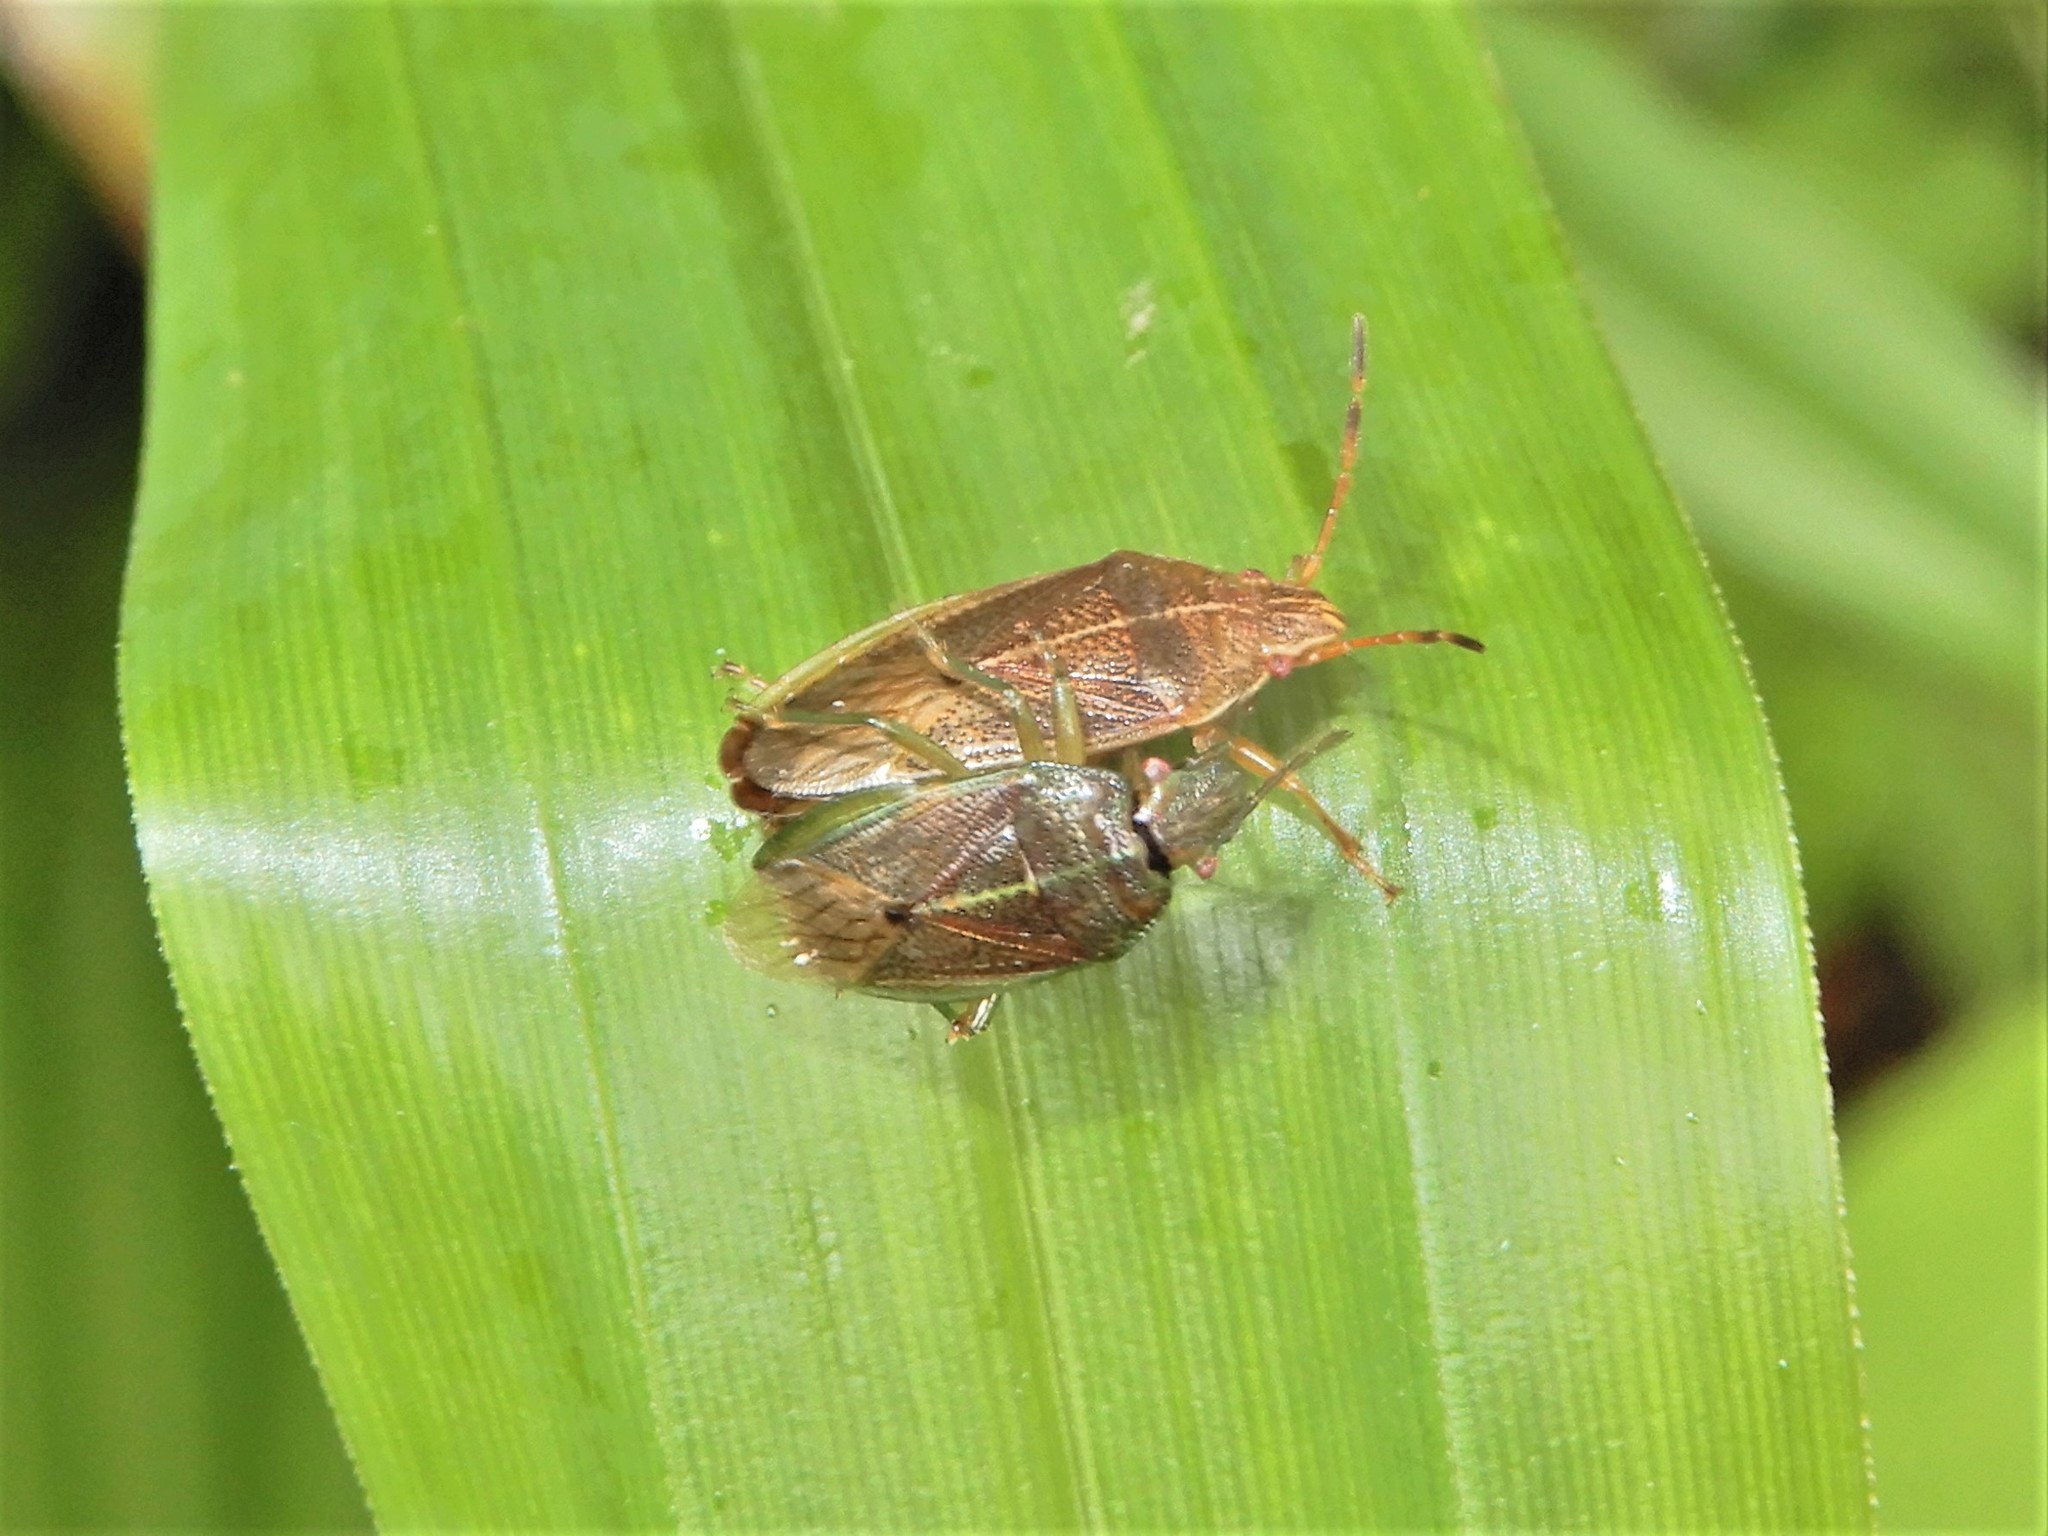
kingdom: Animalia
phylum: Arthropoda
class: Insecta
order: Hemiptera
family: Acanthosomatidae
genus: Rhopalimorpha
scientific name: Rhopalimorpha obscura
